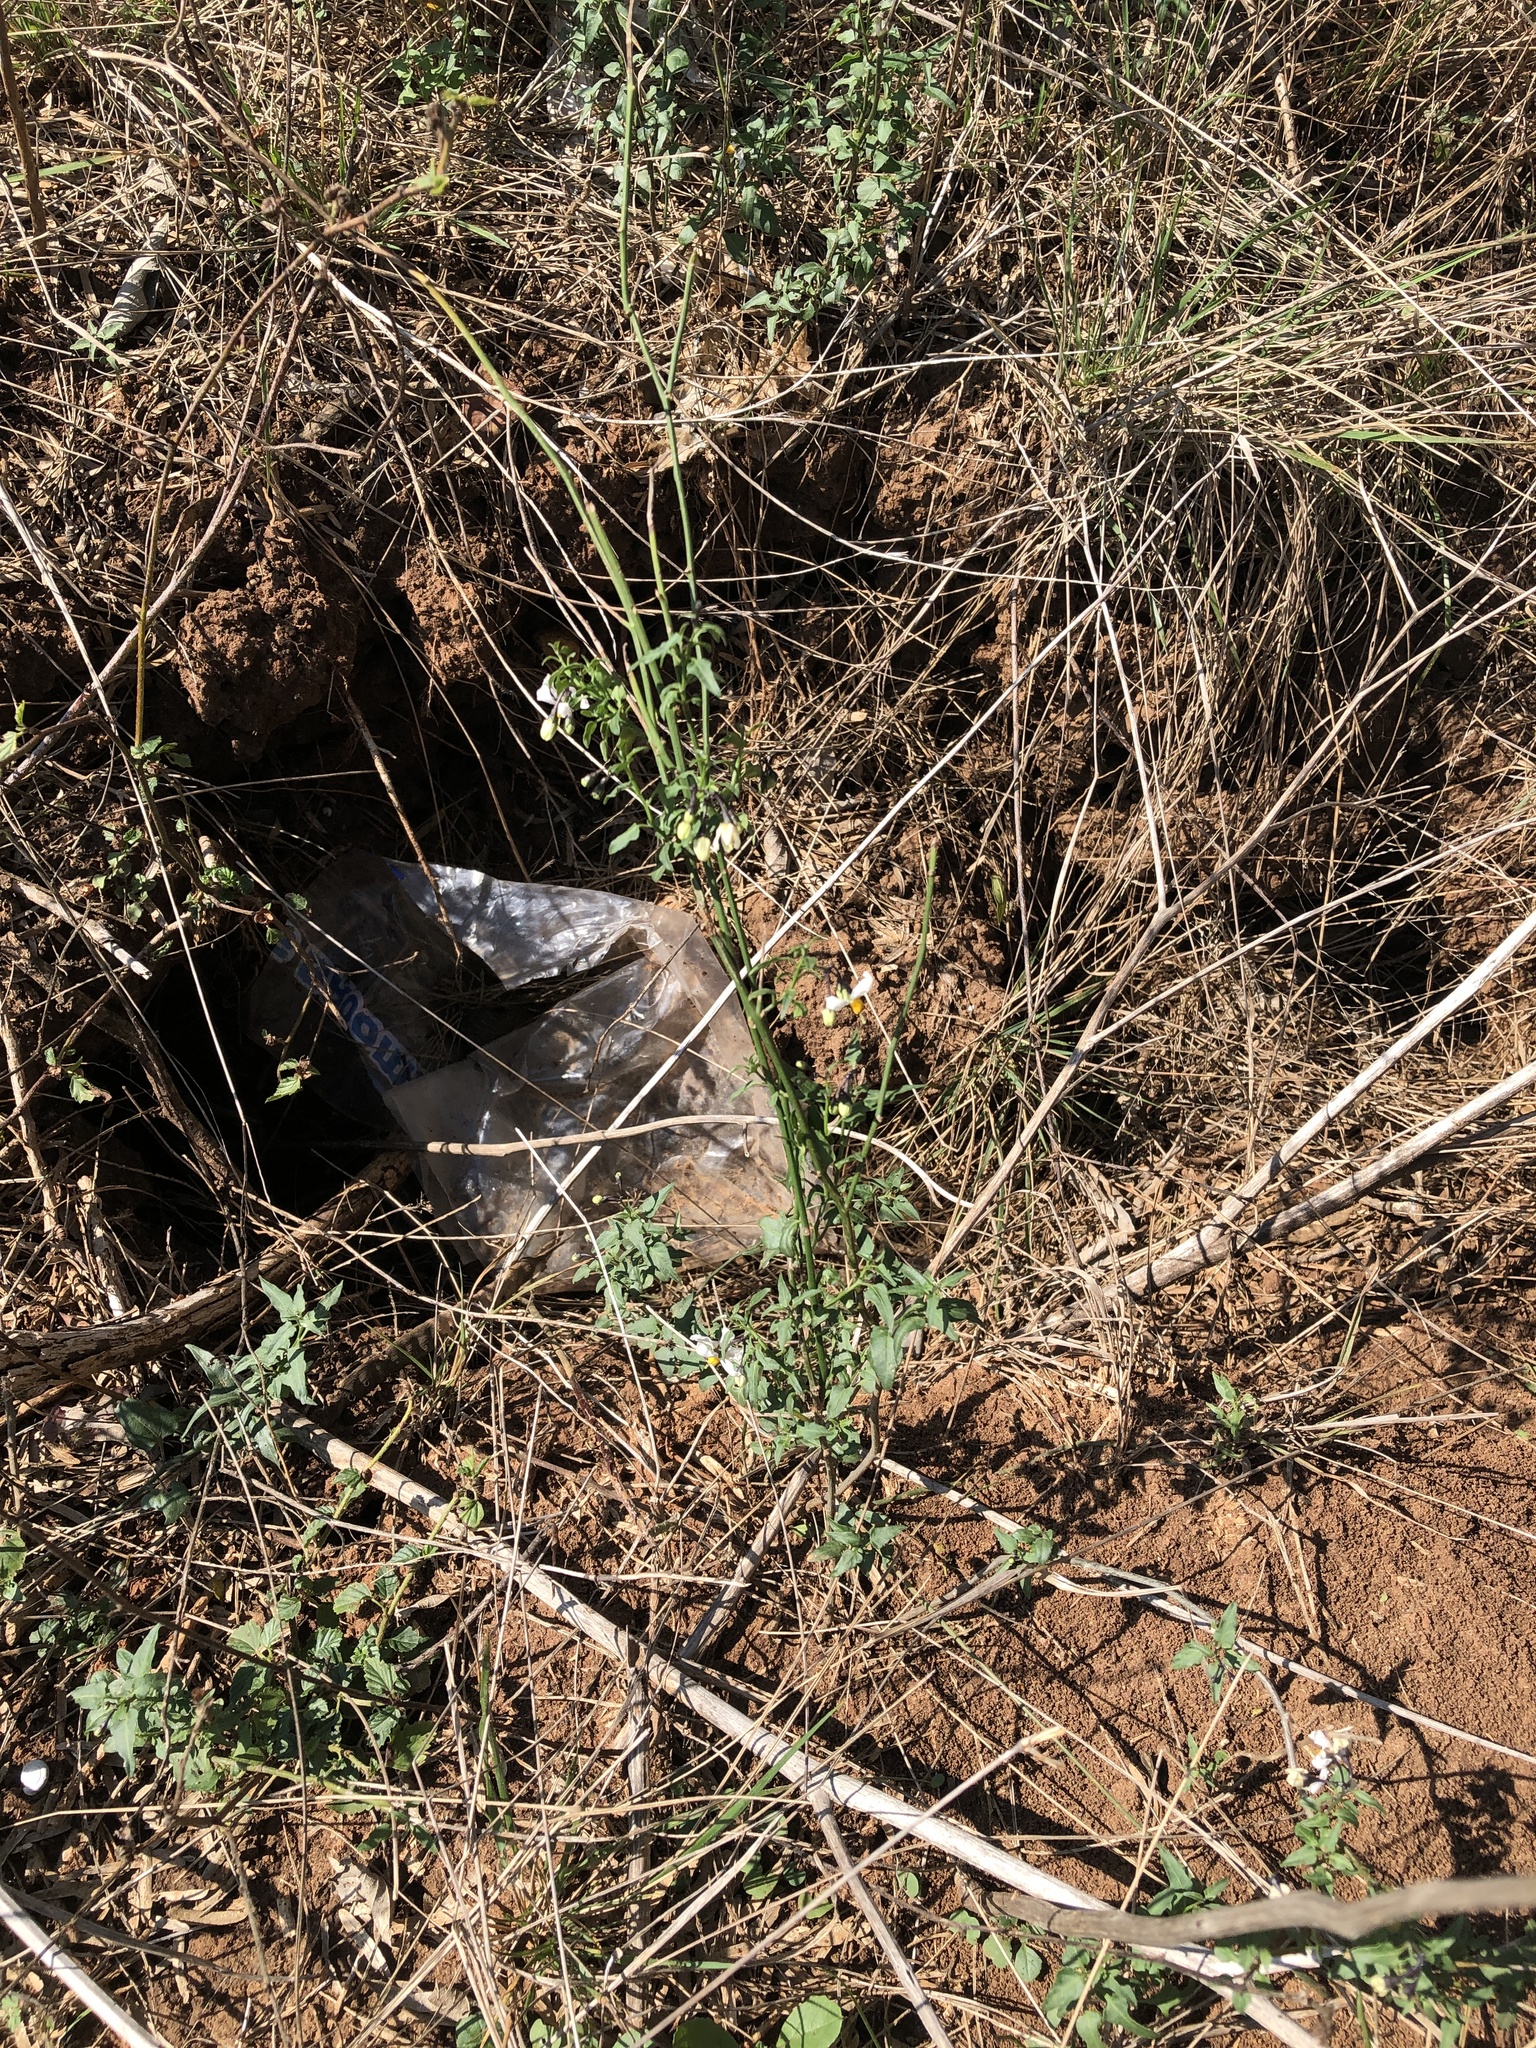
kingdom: Plantae
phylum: Tracheophyta
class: Magnoliopsida
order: Solanales
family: Solanaceae
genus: Solanum
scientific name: Solanum triquetrum
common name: Texas nightshade
